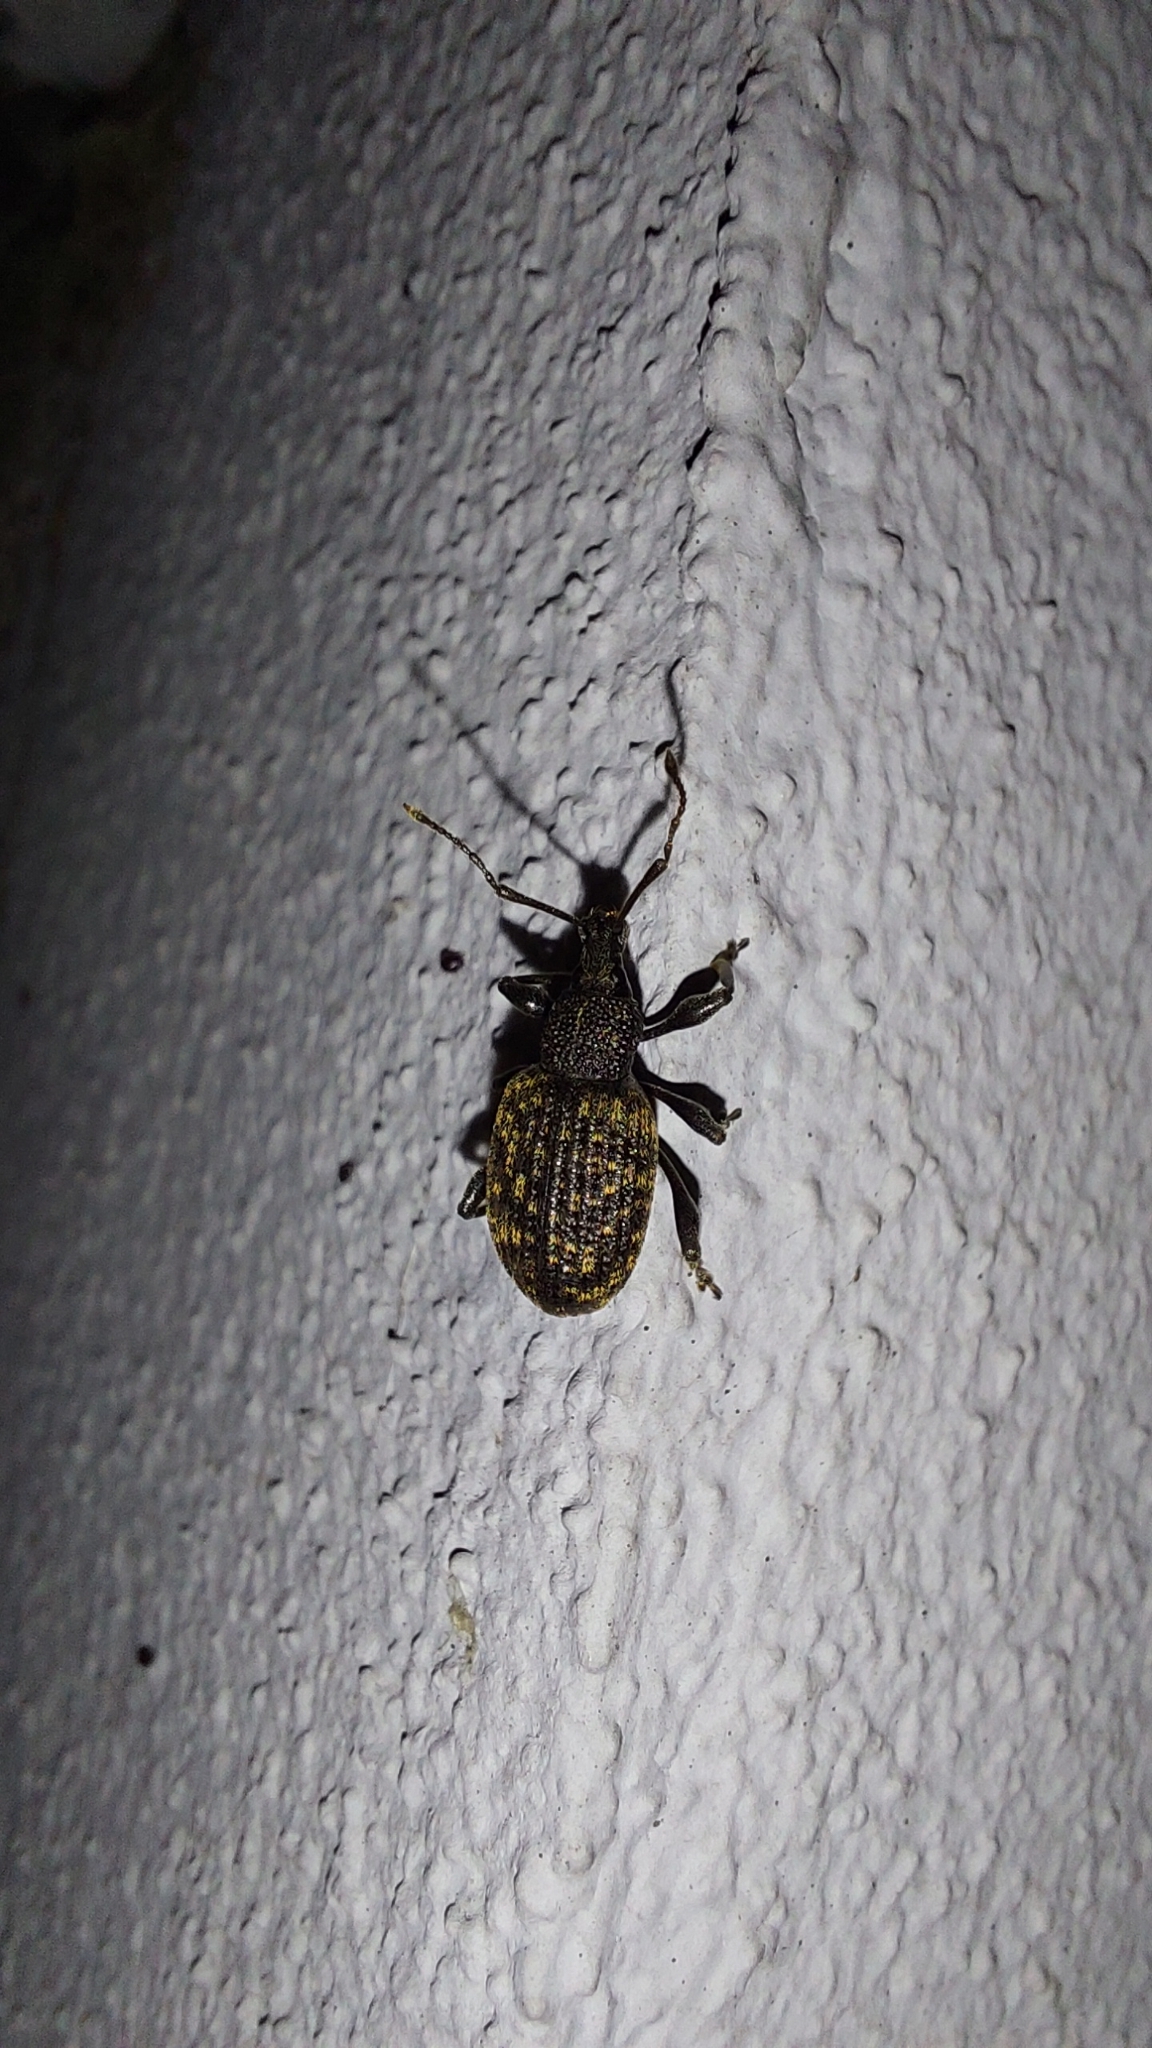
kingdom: Animalia
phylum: Arthropoda
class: Insecta
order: Coleoptera
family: Curculionidae
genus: Otiorhynchus
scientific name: Otiorhynchus sulcatus
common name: Black vine weevil
